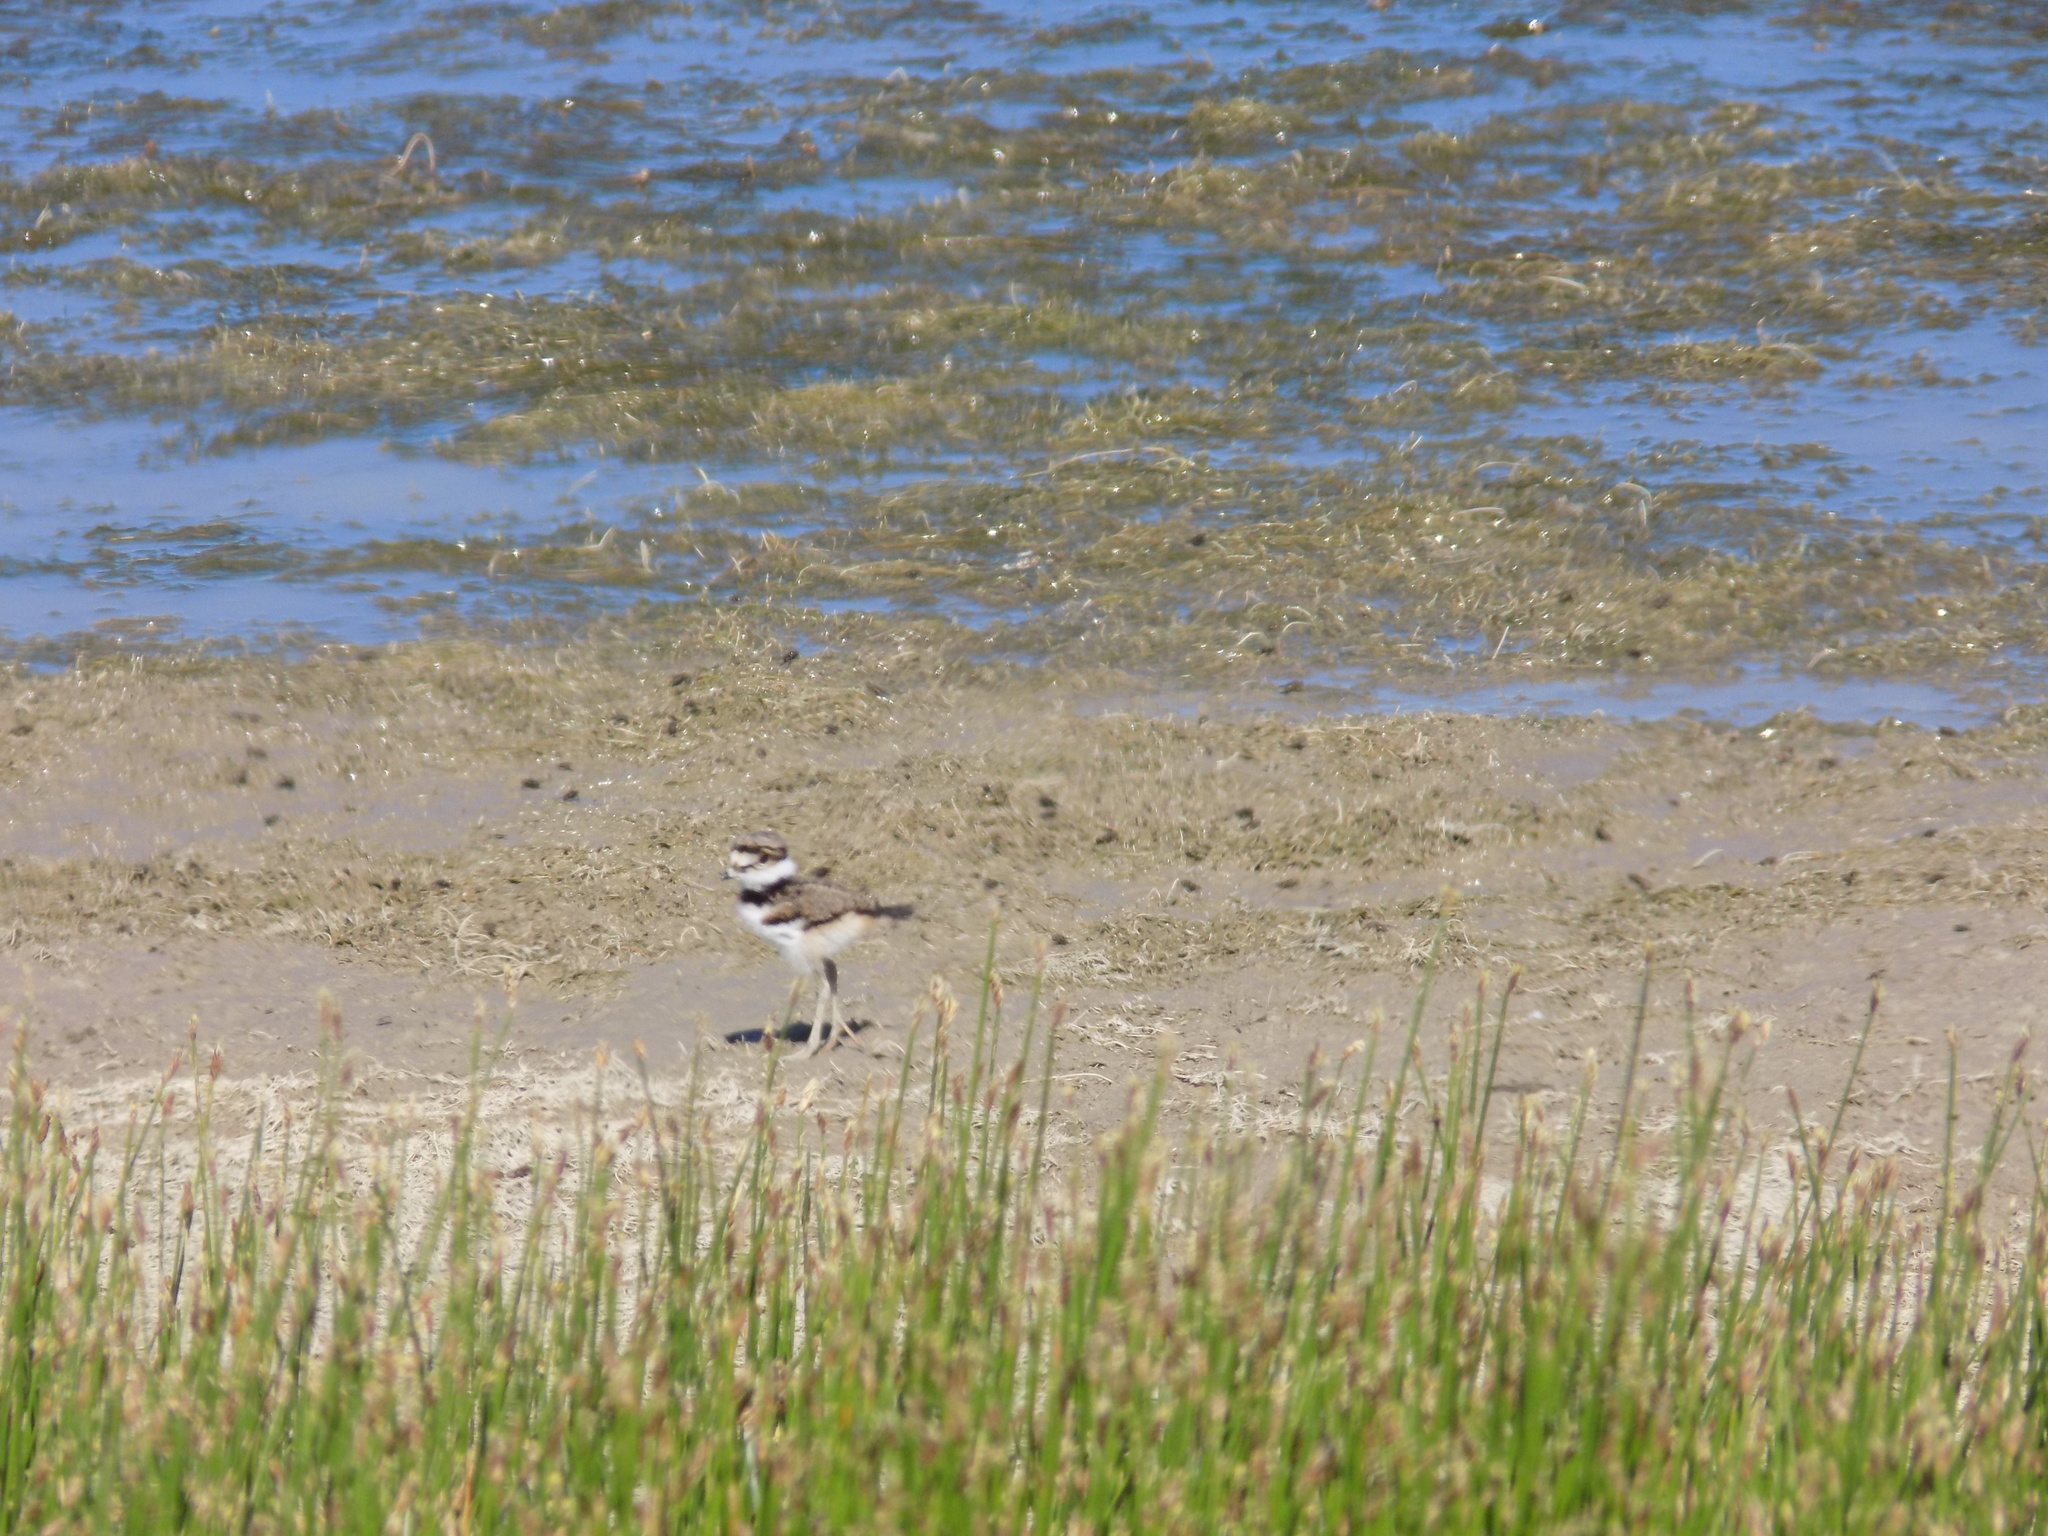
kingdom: Animalia
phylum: Chordata
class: Aves
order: Charadriiformes
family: Charadriidae
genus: Charadrius
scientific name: Charadrius vociferus
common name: Killdeer
